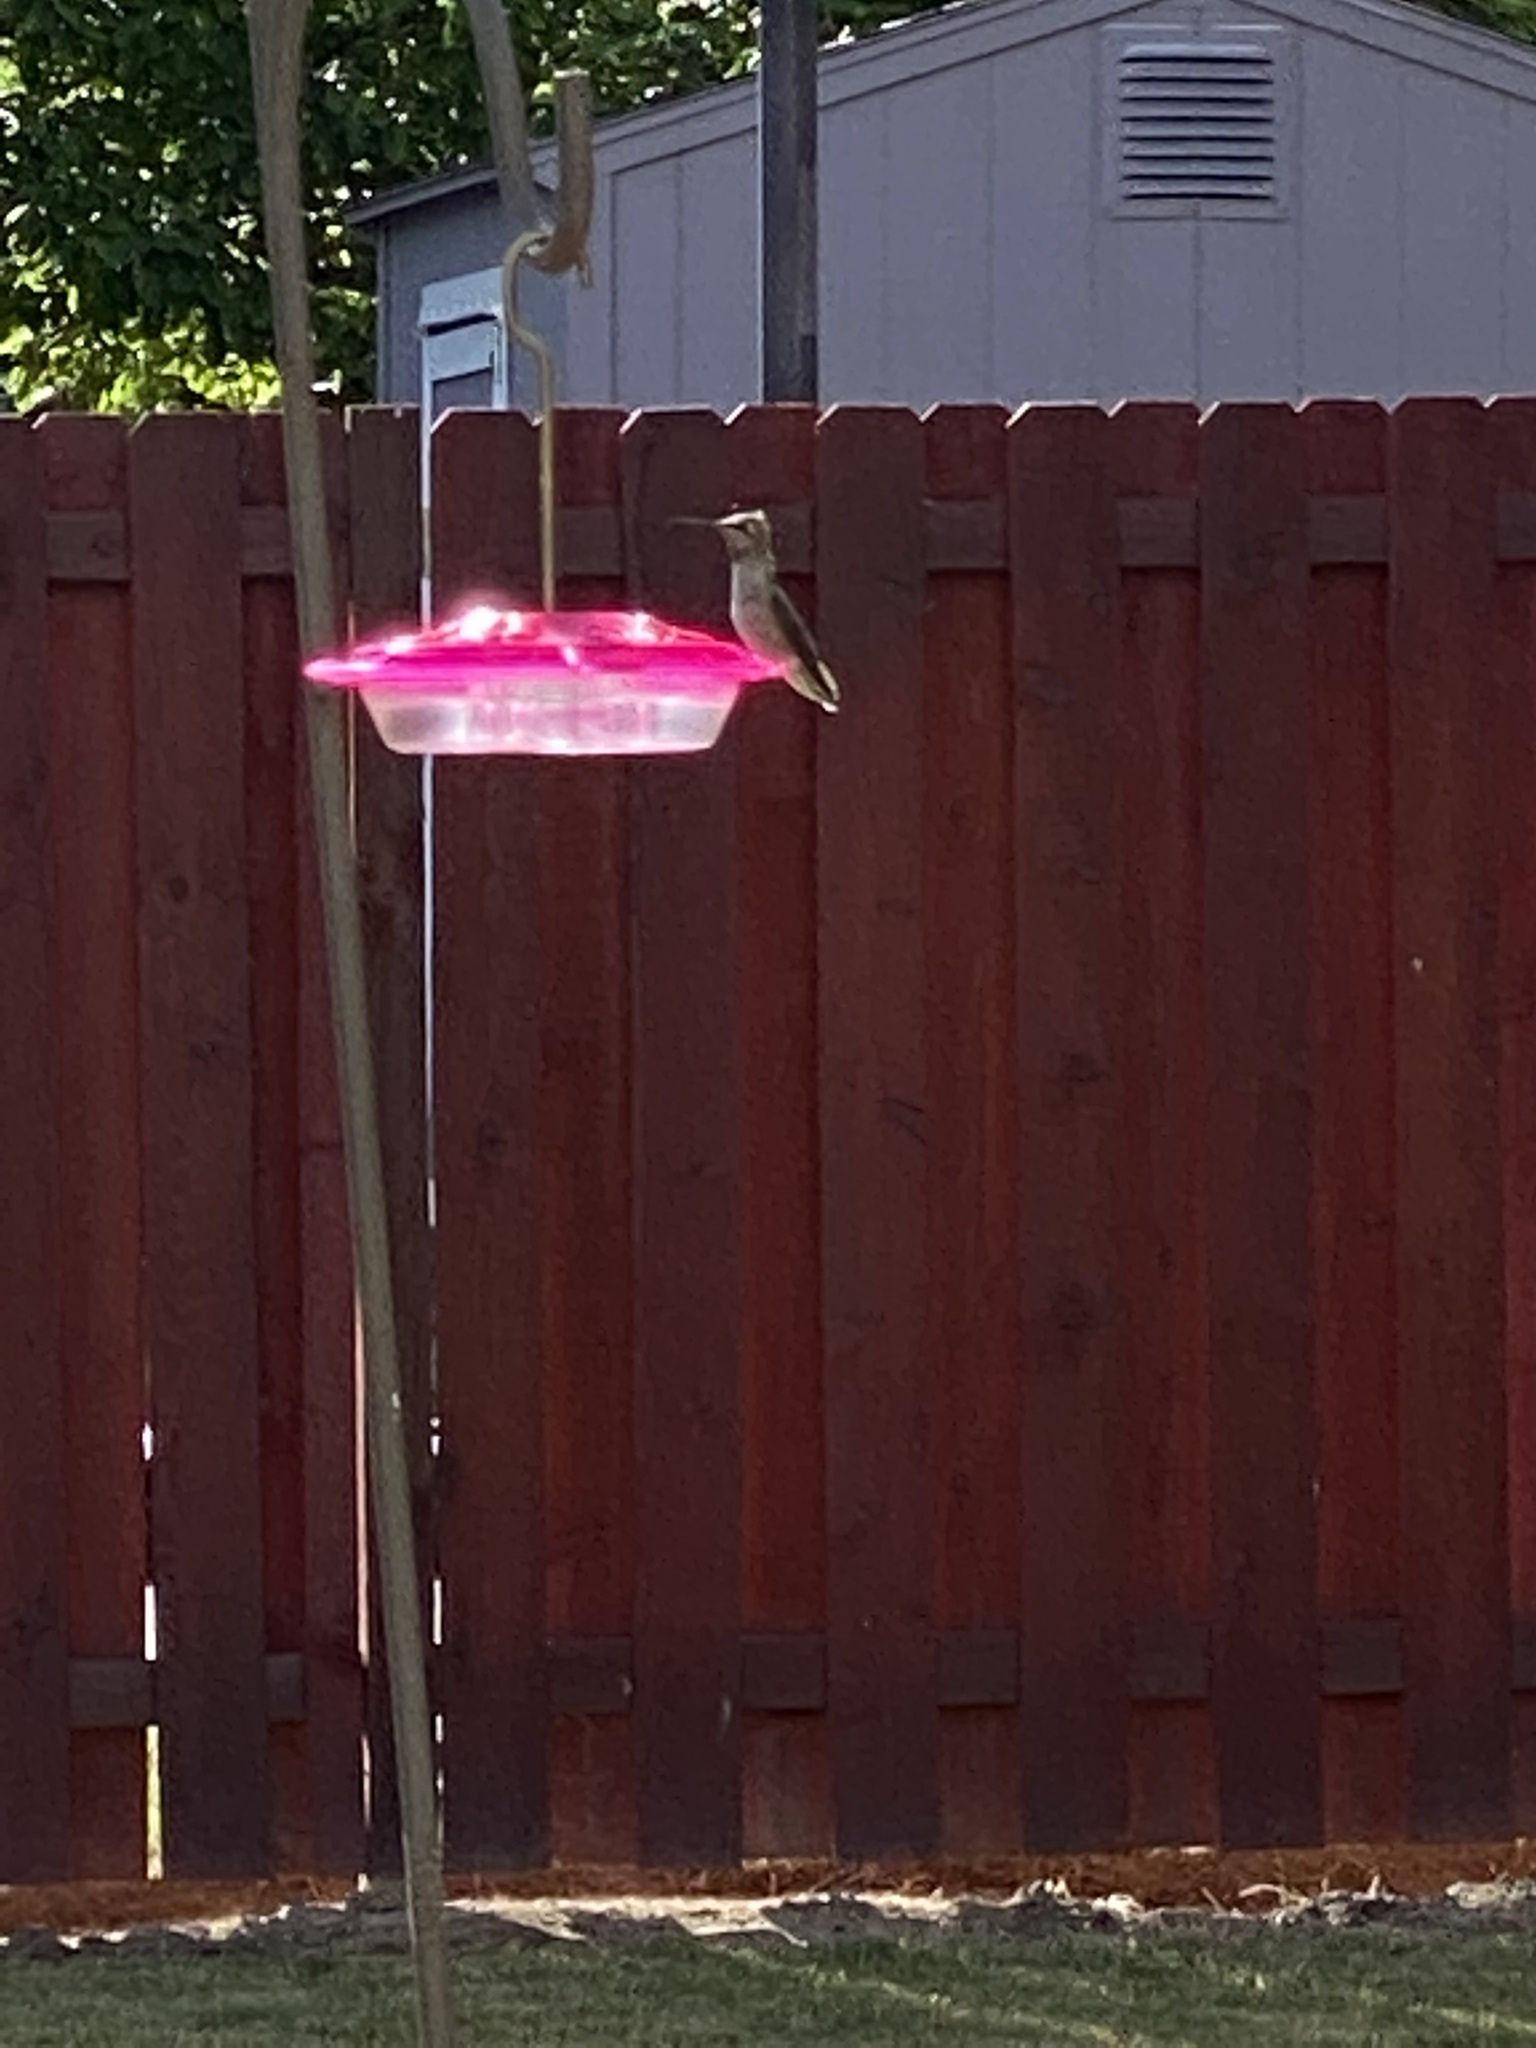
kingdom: Animalia
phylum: Chordata
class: Aves
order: Apodiformes
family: Trochilidae
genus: Calypte
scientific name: Calypte anna
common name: Anna's hummingbird
